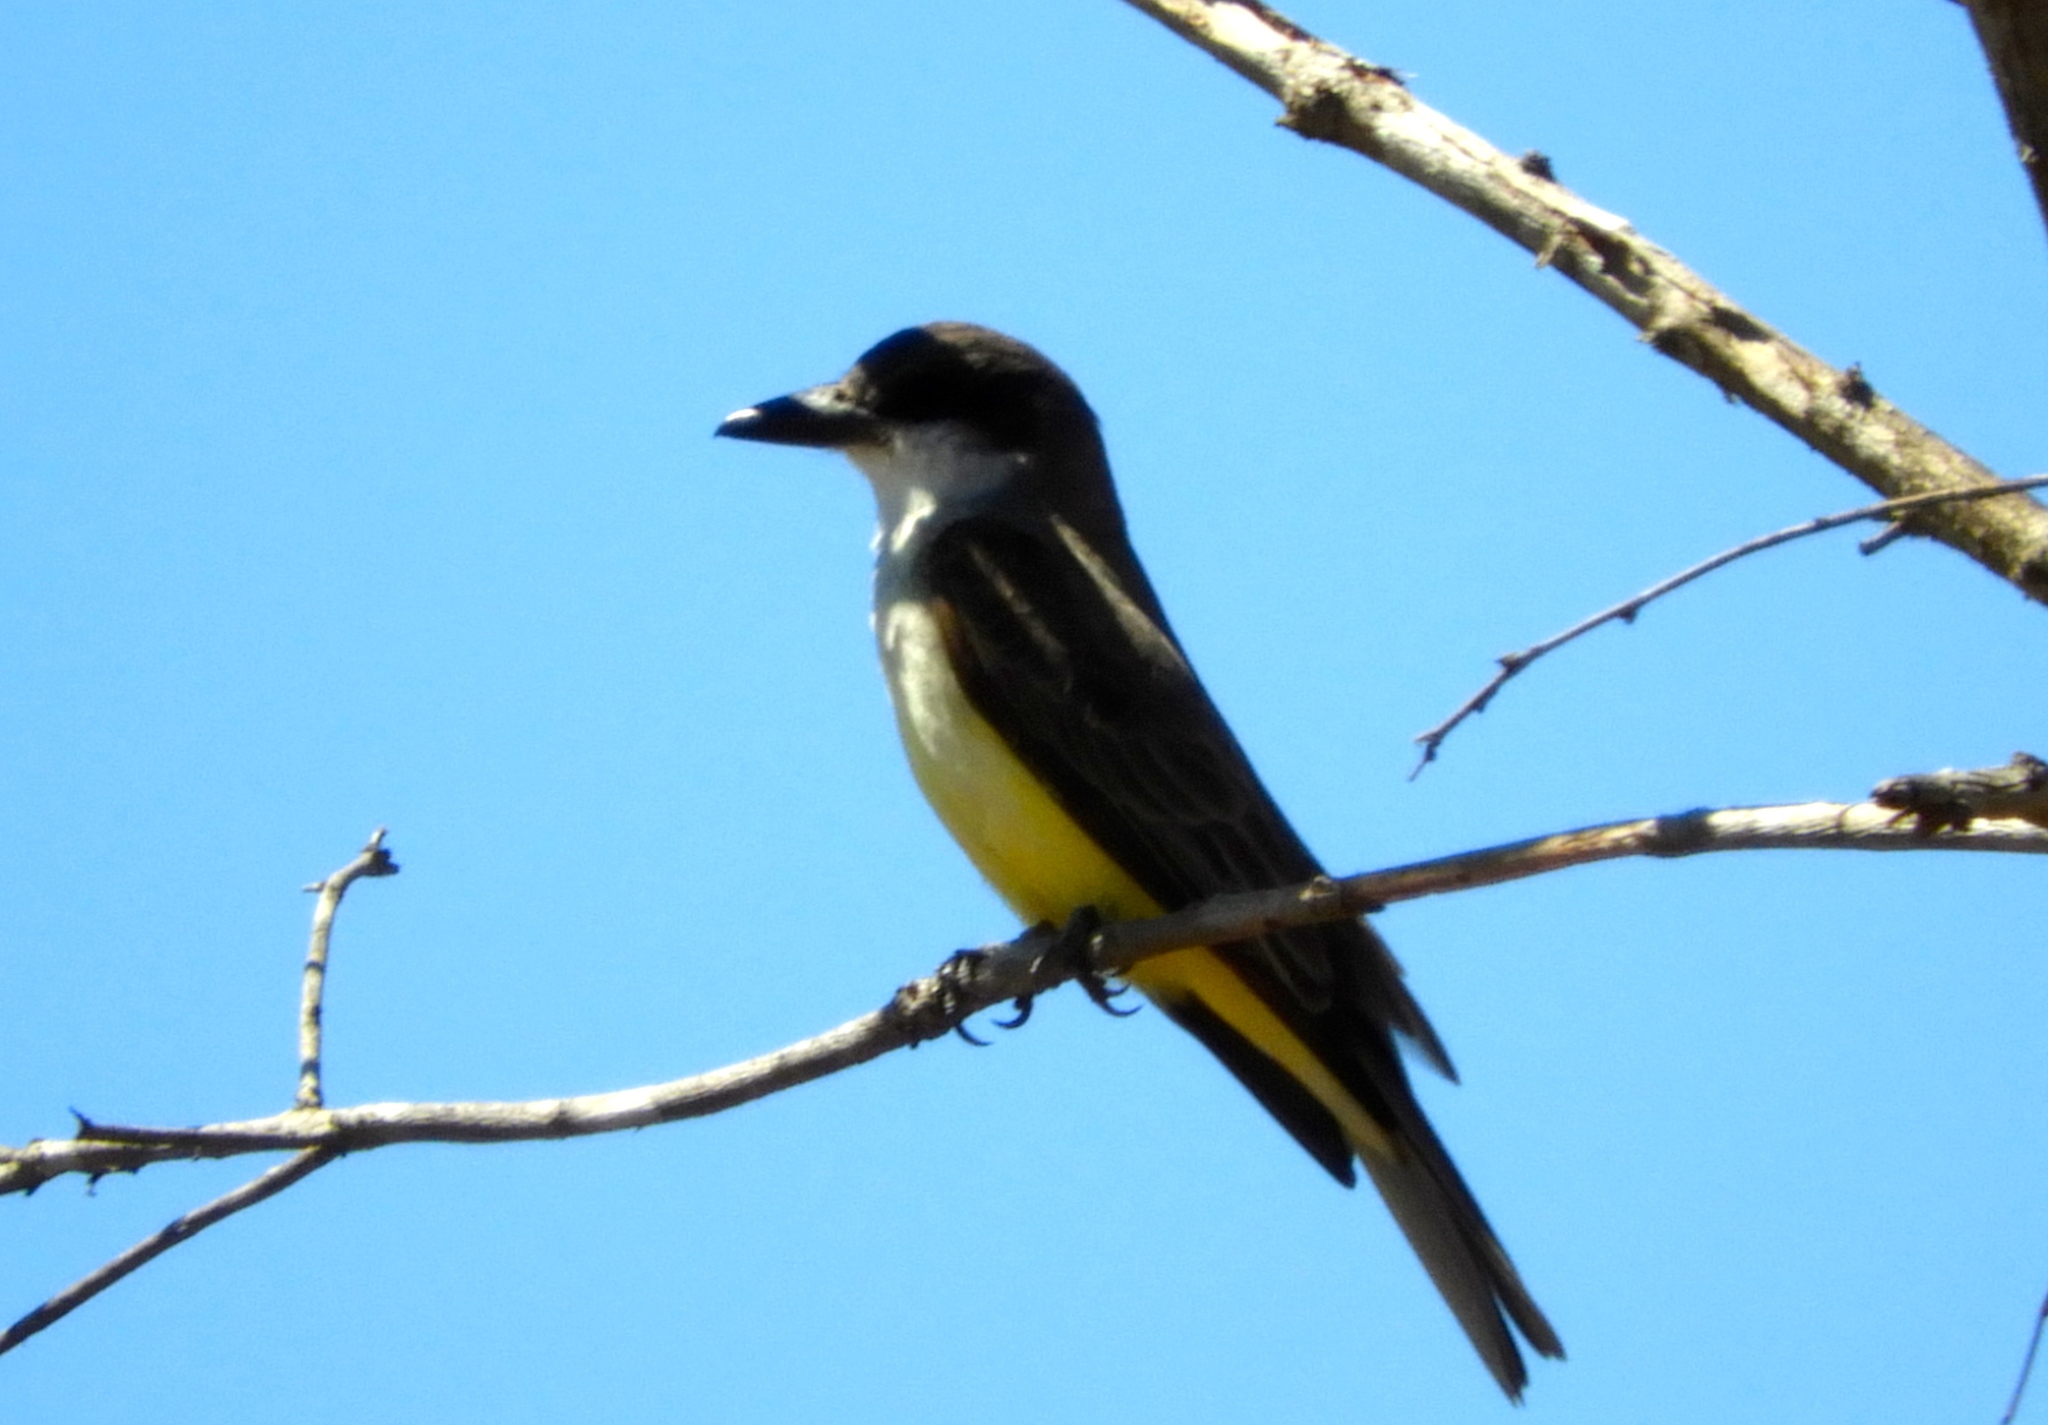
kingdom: Animalia
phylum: Chordata
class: Aves
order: Passeriformes
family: Tyrannidae
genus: Tyrannus
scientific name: Tyrannus crassirostris
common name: Thick-billed kingbird
